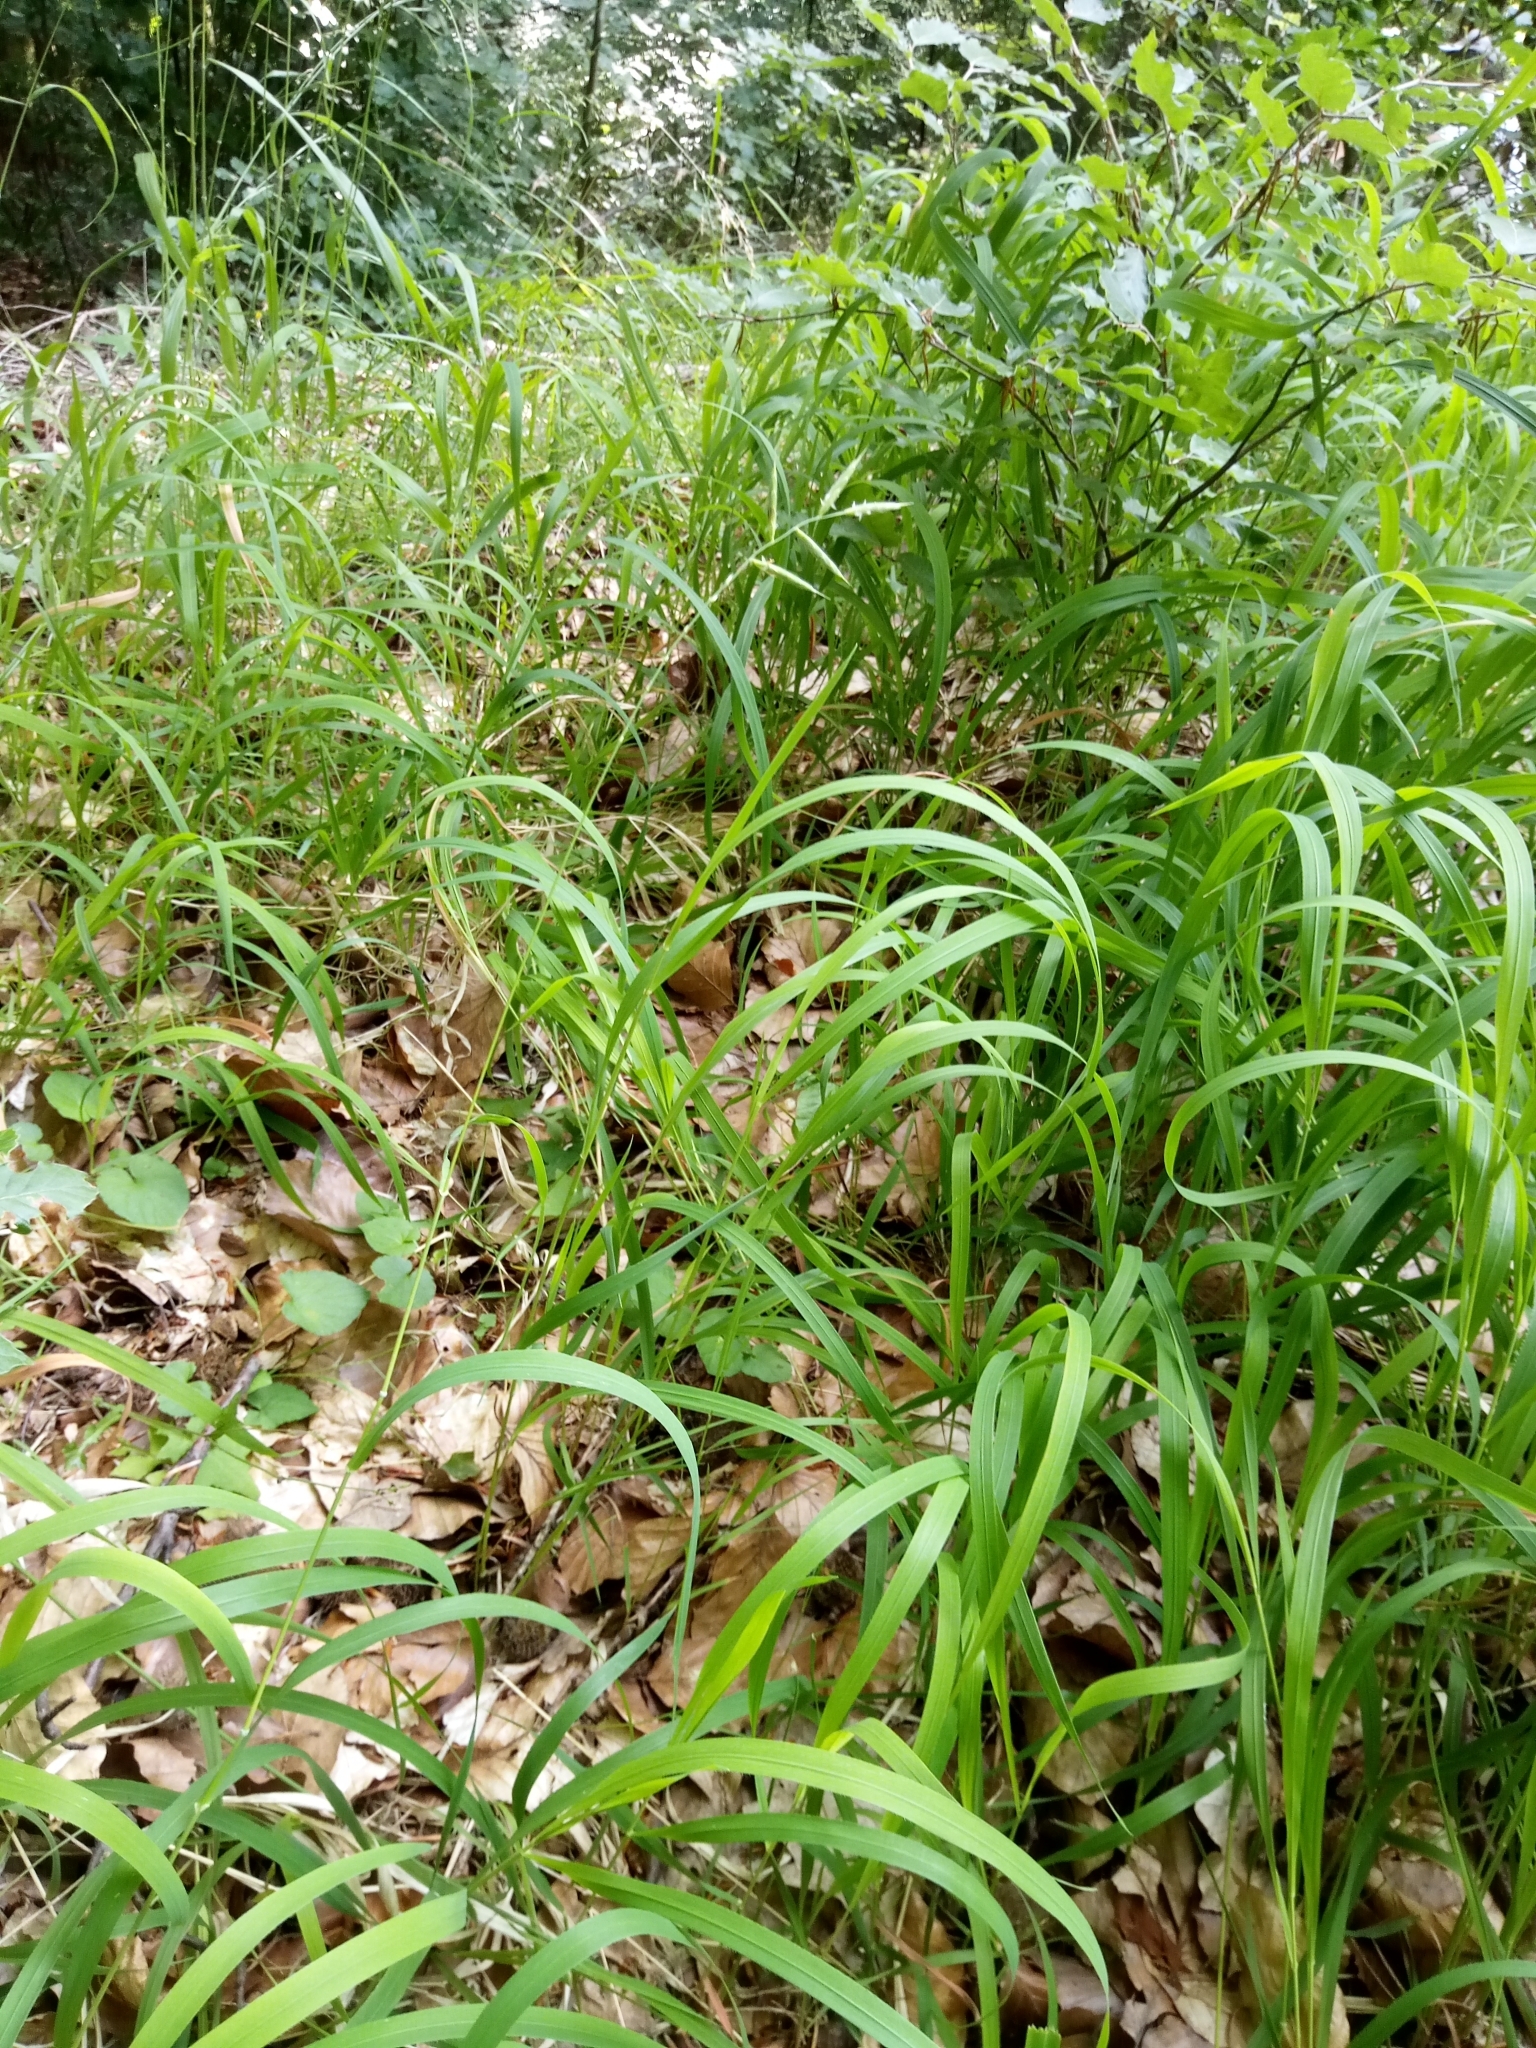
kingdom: Plantae
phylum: Tracheophyta
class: Liliopsida
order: Poales
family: Poaceae
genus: Brachypodium
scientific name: Brachypodium pinnatum
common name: Tor grass
